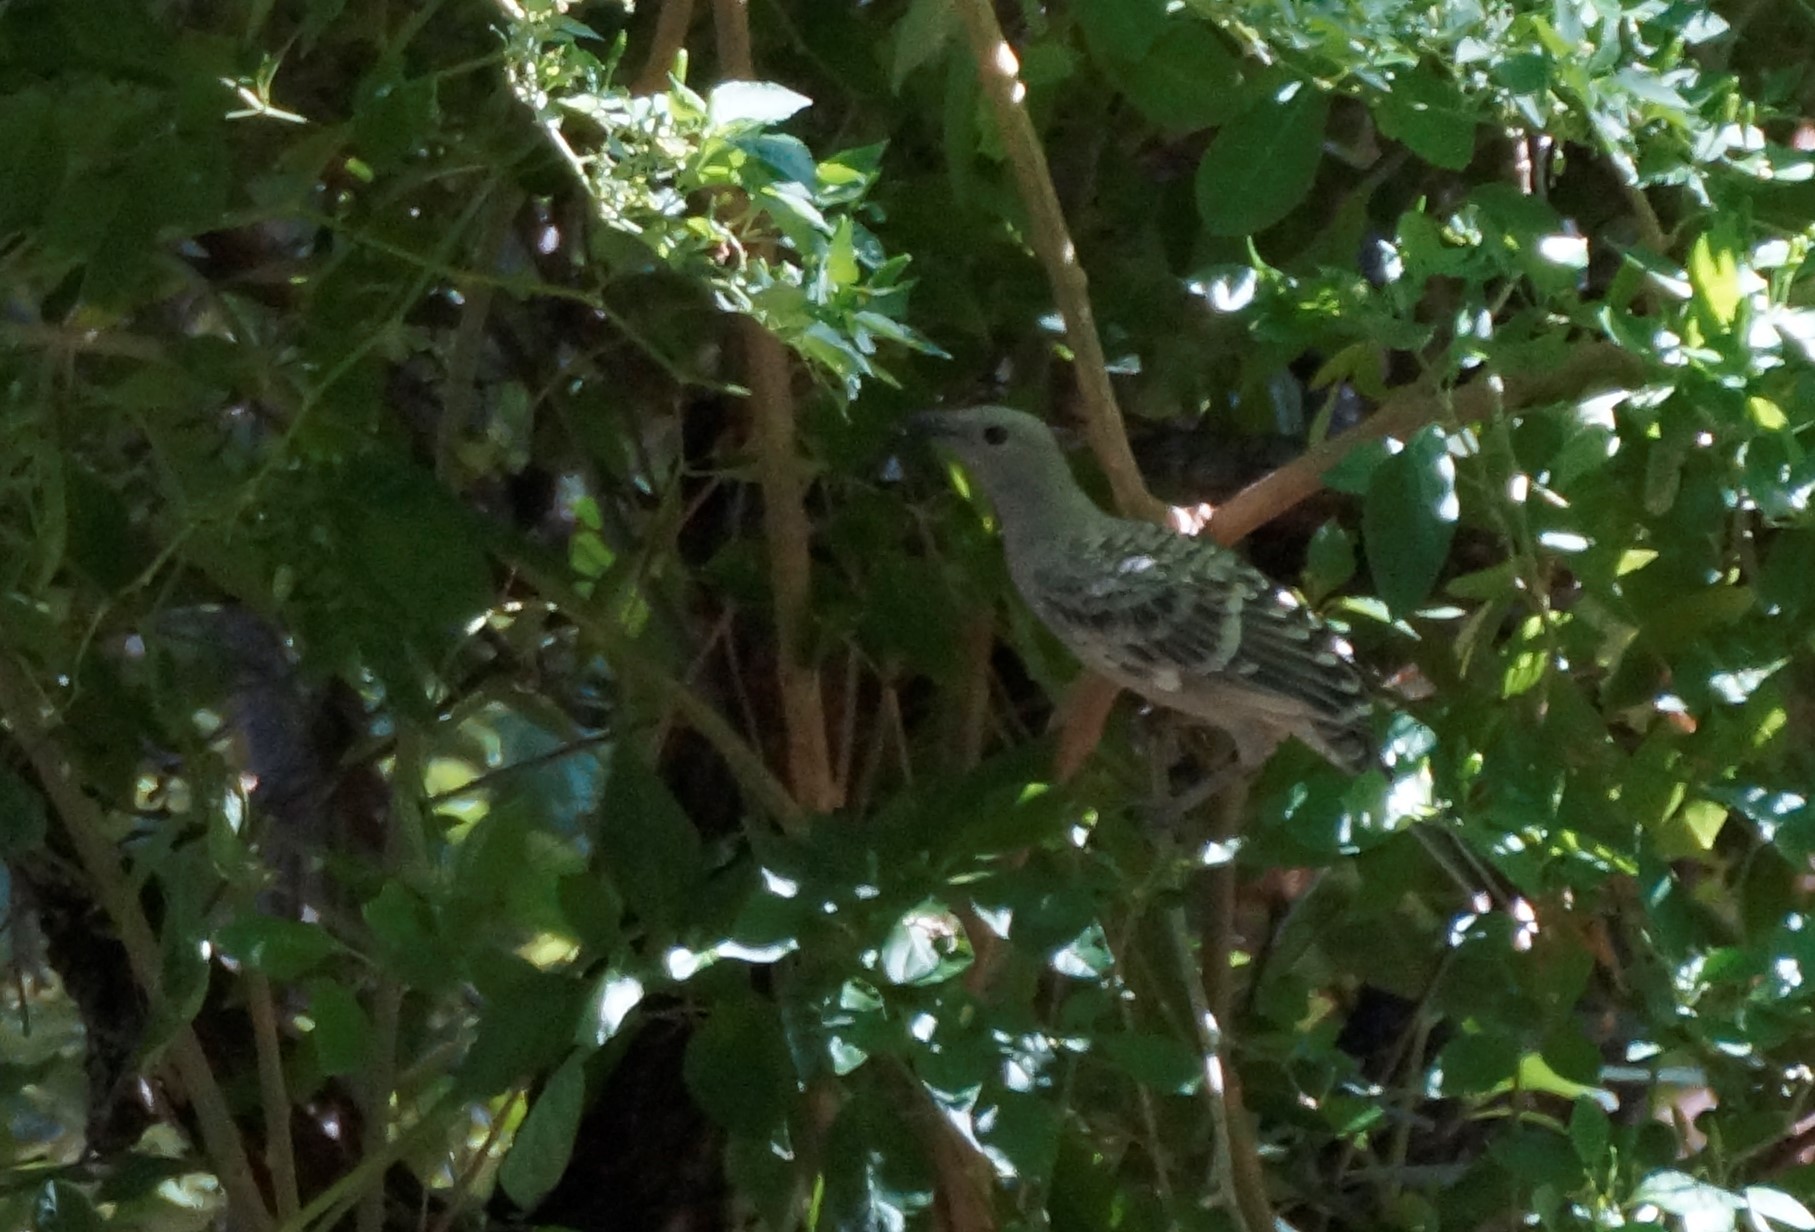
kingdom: Animalia
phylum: Chordata
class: Aves
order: Passeriformes
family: Ptilonorhynchidae
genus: Chlamydera
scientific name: Chlamydera nuchalis
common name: Great bowerbird
